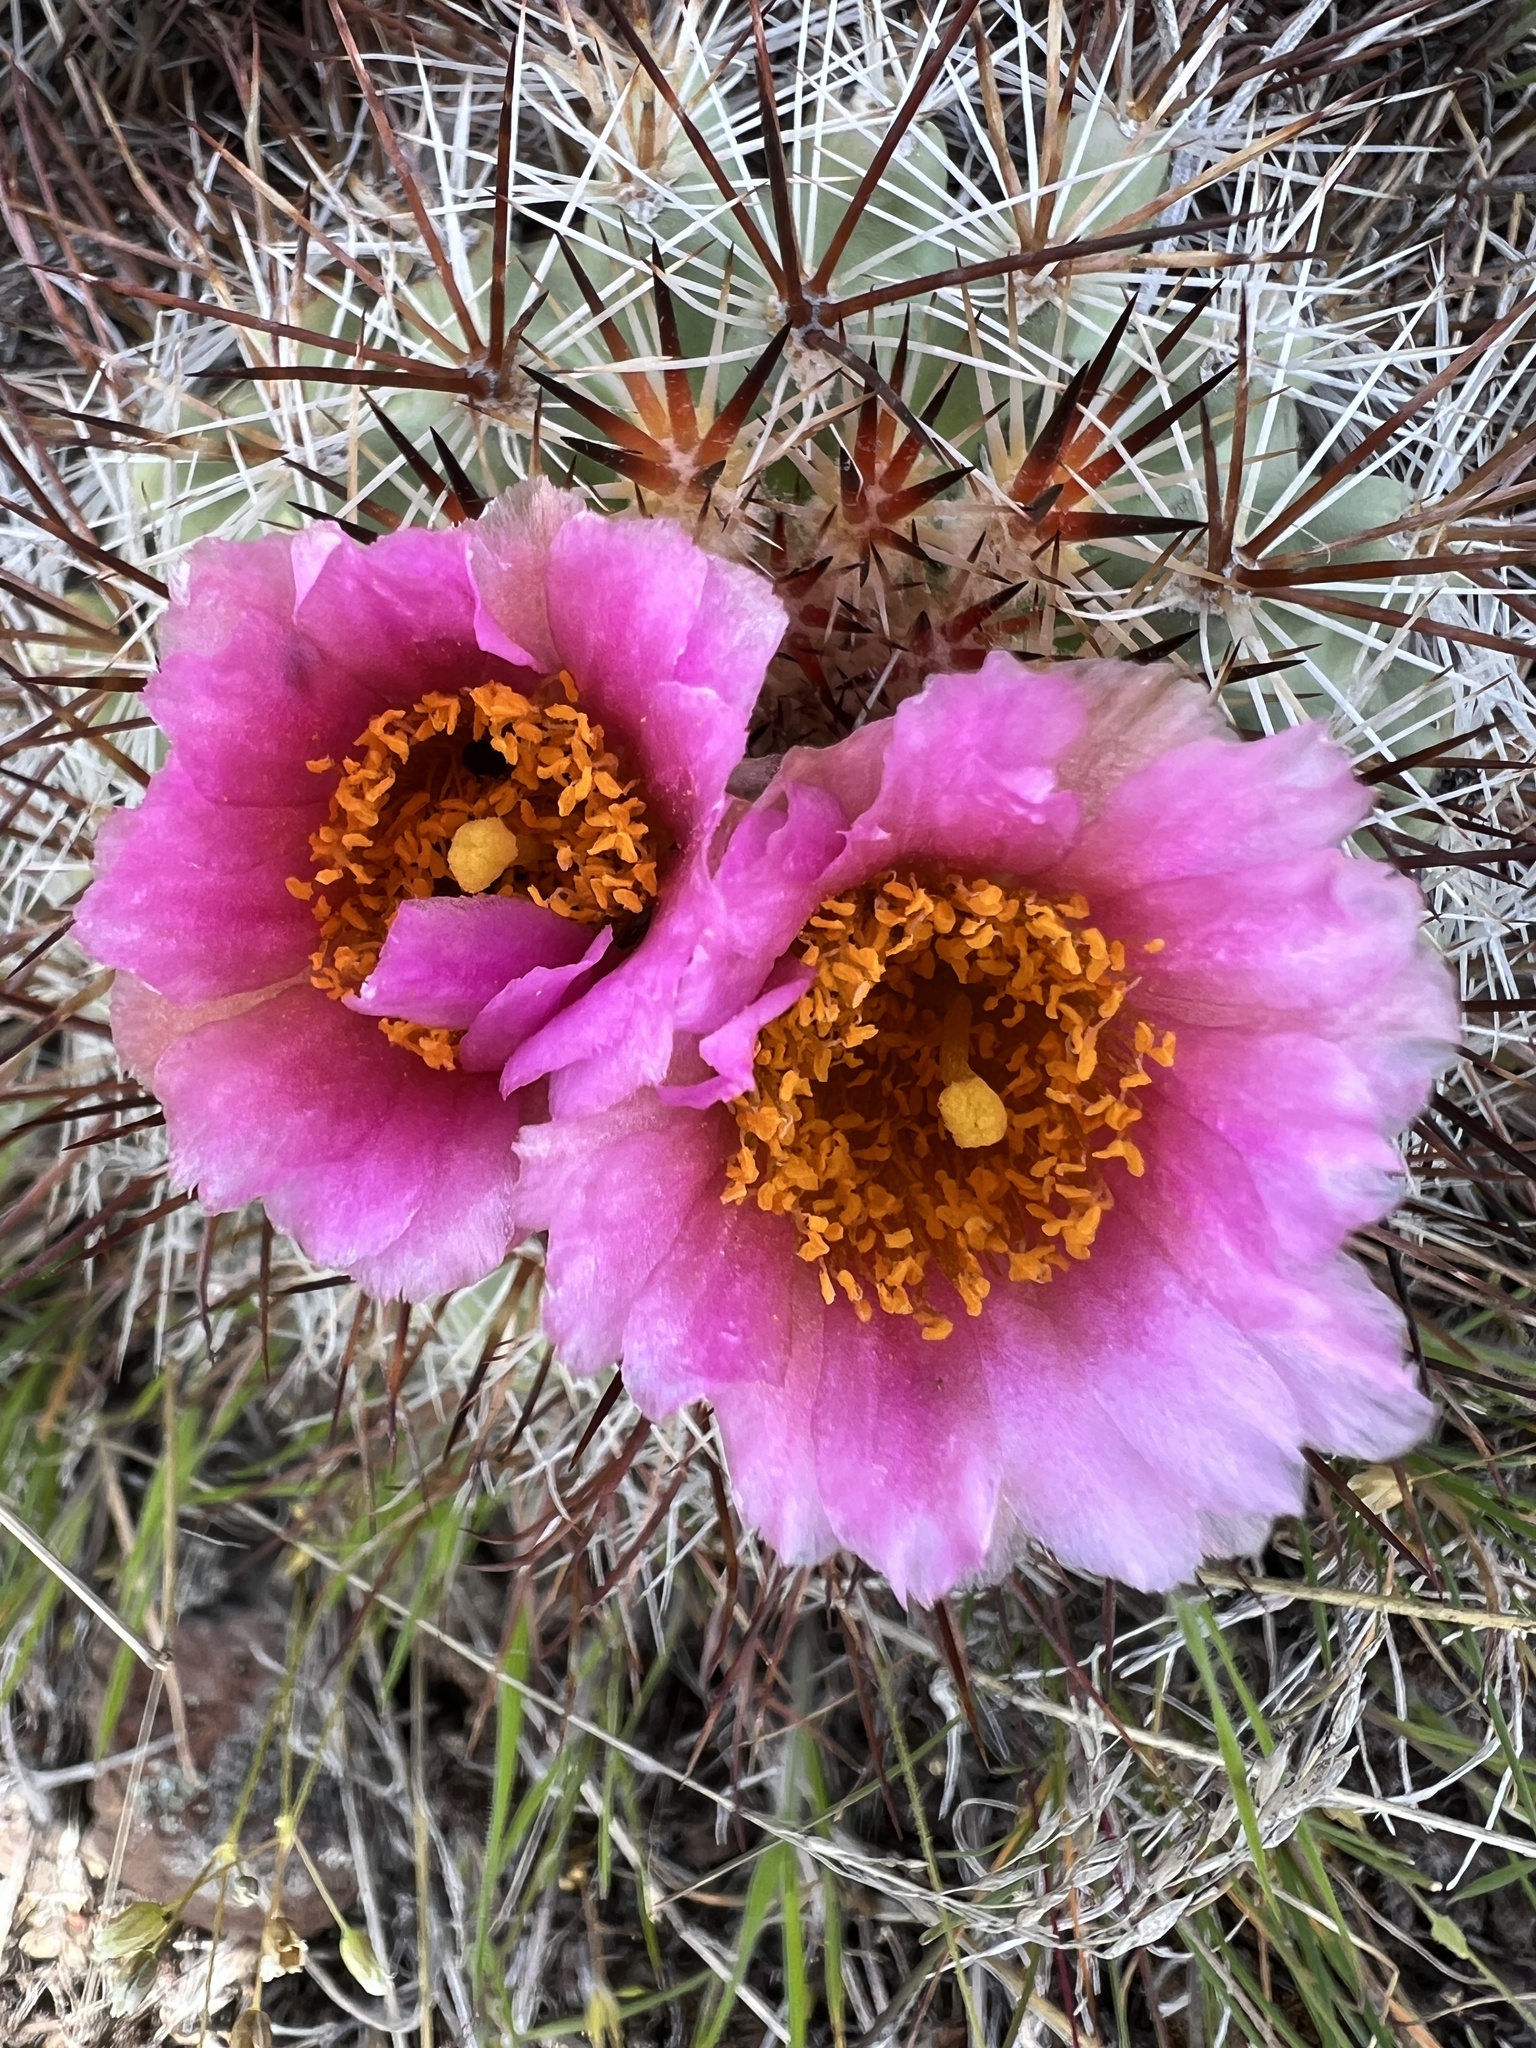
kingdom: Plantae
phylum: Tracheophyta
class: Magnoliopsida
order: Caryophyllales
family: Cactaceae
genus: Pediocactus
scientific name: Pediocactus nigrispinus
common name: Simpson's hedgehog cactus
